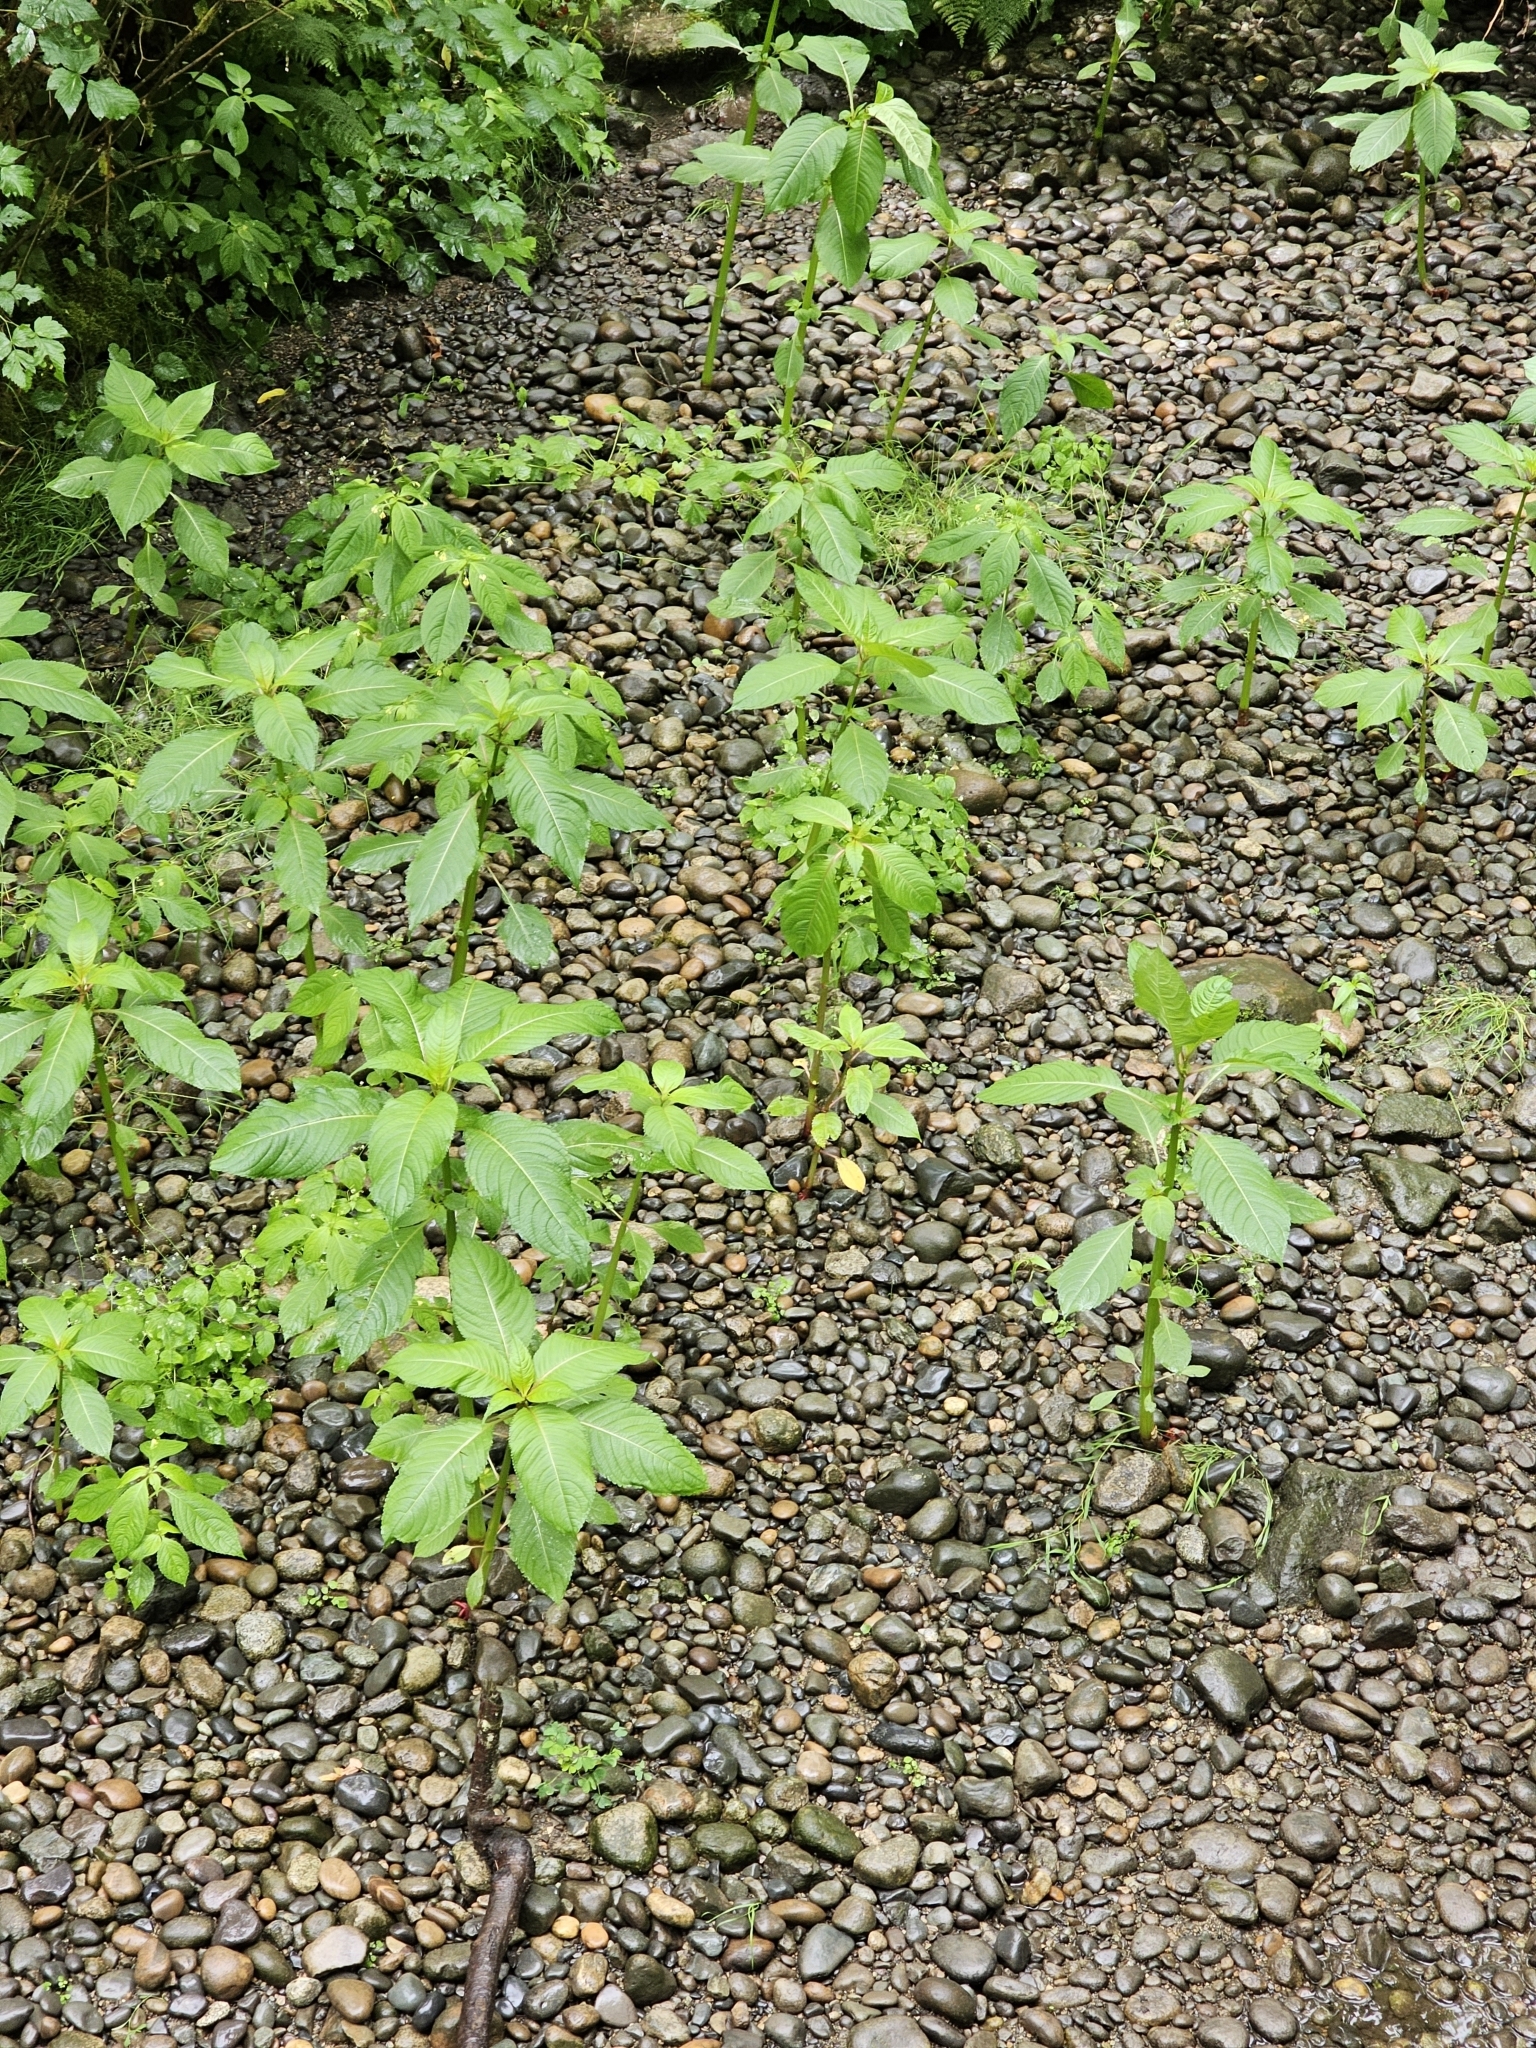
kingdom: Plantae
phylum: Tracheophyta
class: Magnoliopsida
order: Ericales
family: Balsaminaceae
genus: Impatiens
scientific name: Impatiens glandulifera
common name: Himalayan balsam
